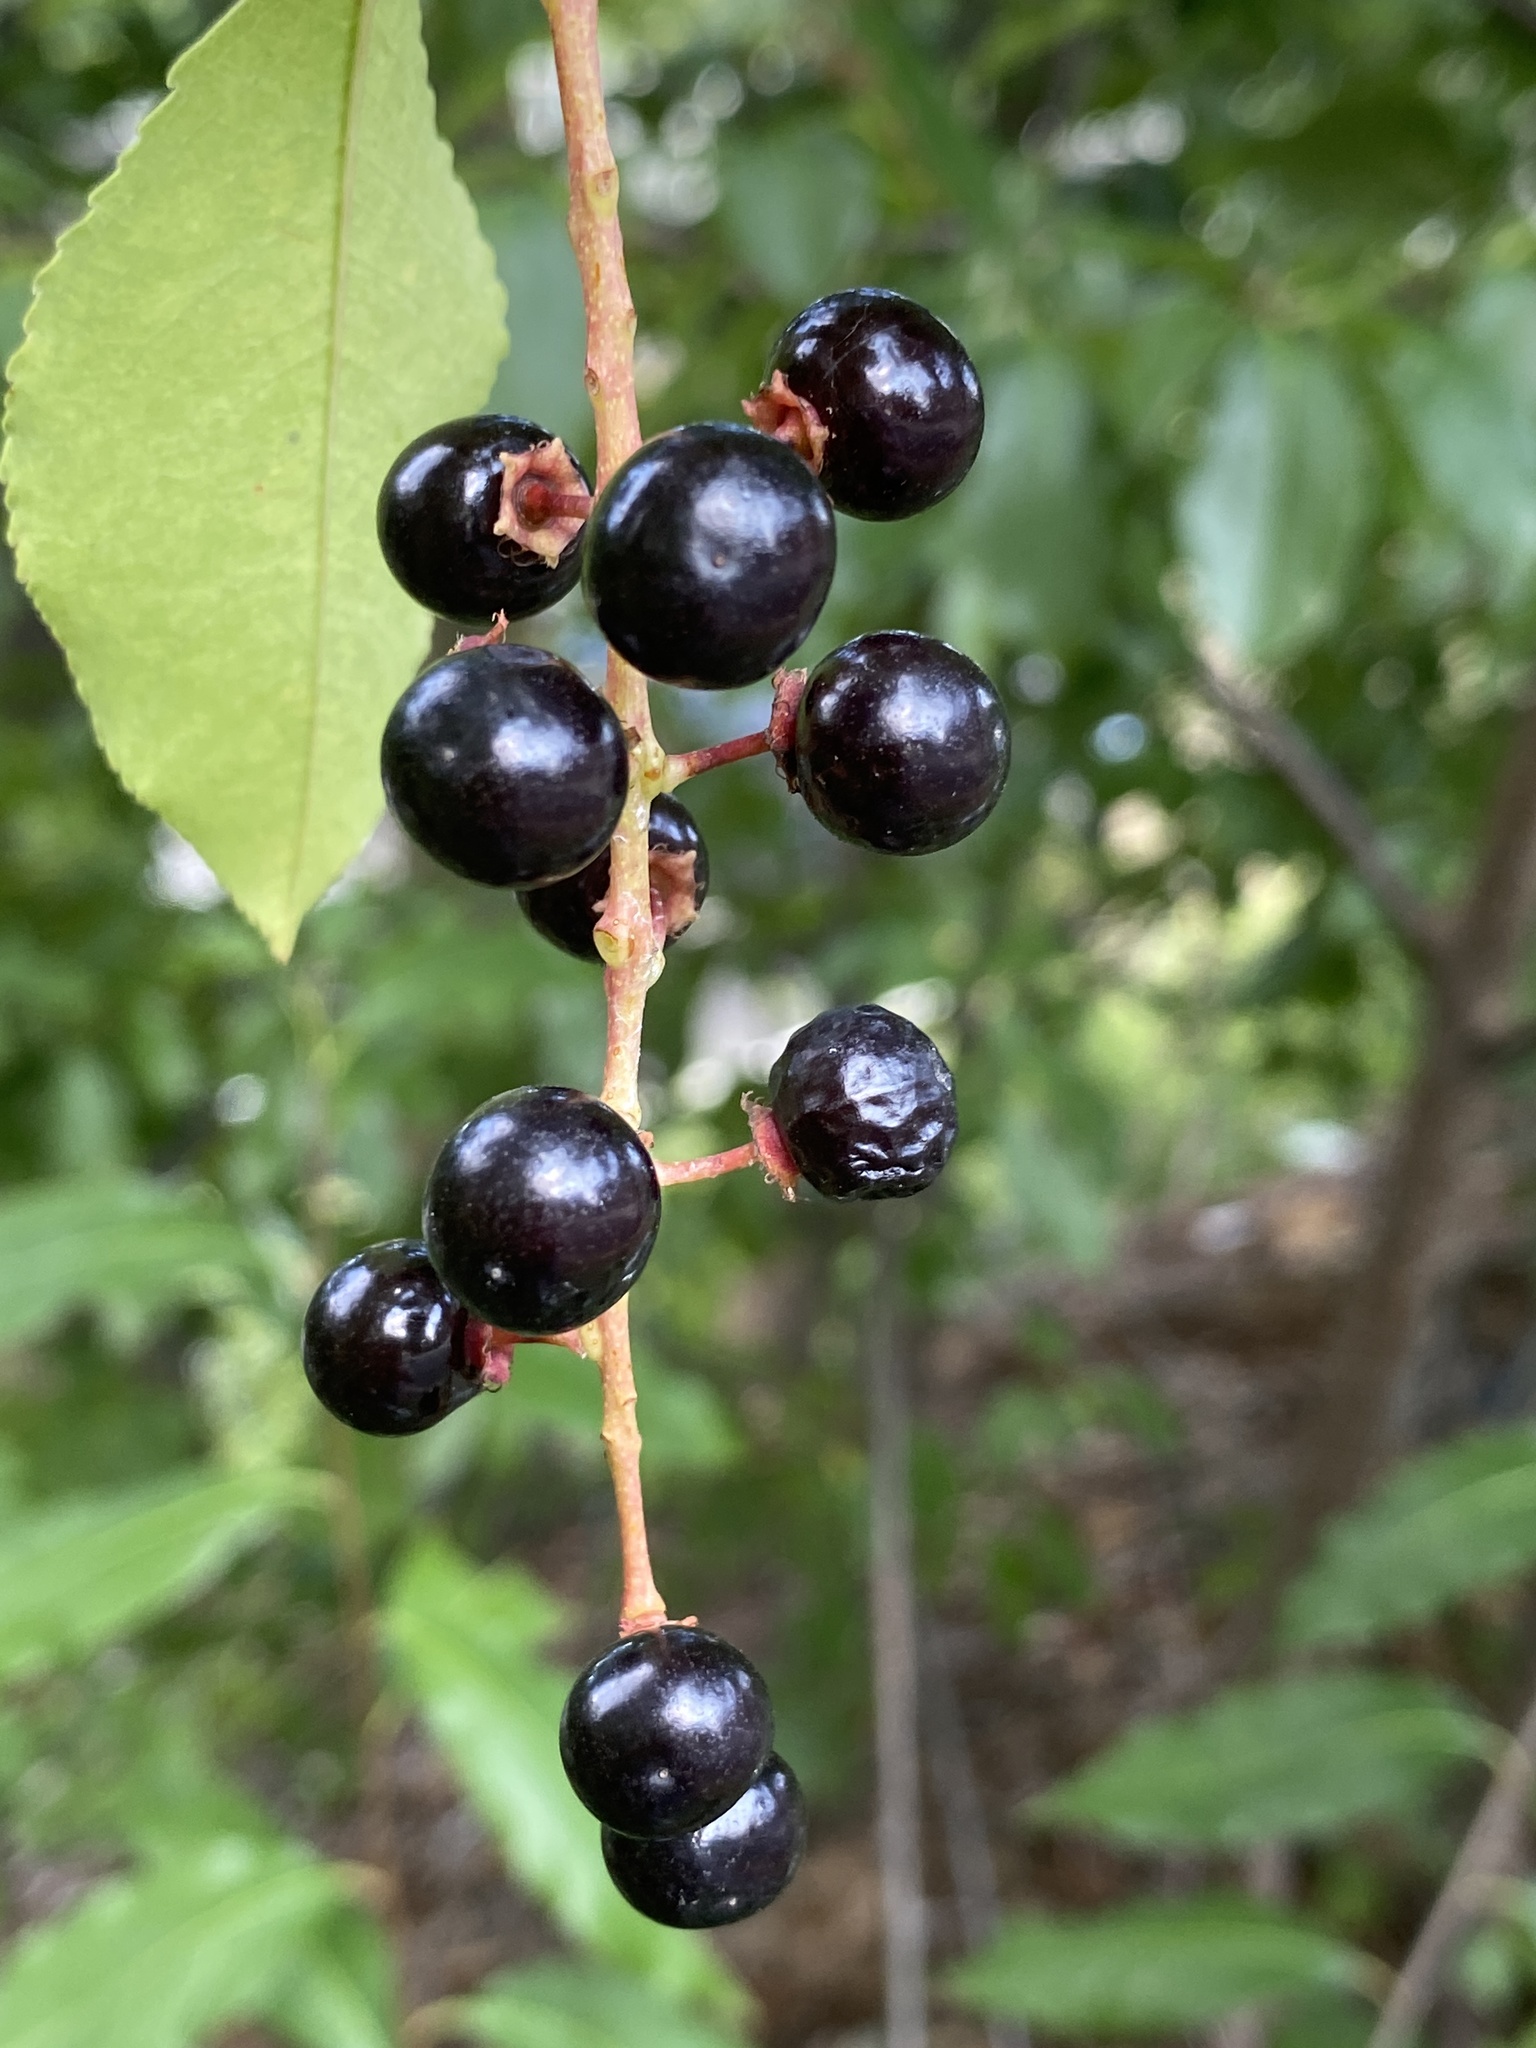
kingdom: Plantae
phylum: Tracheophyta
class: Magnoliopsida
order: Rosales
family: Rosaceae
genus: Prunus
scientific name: Prunus serotina
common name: Black cherry
